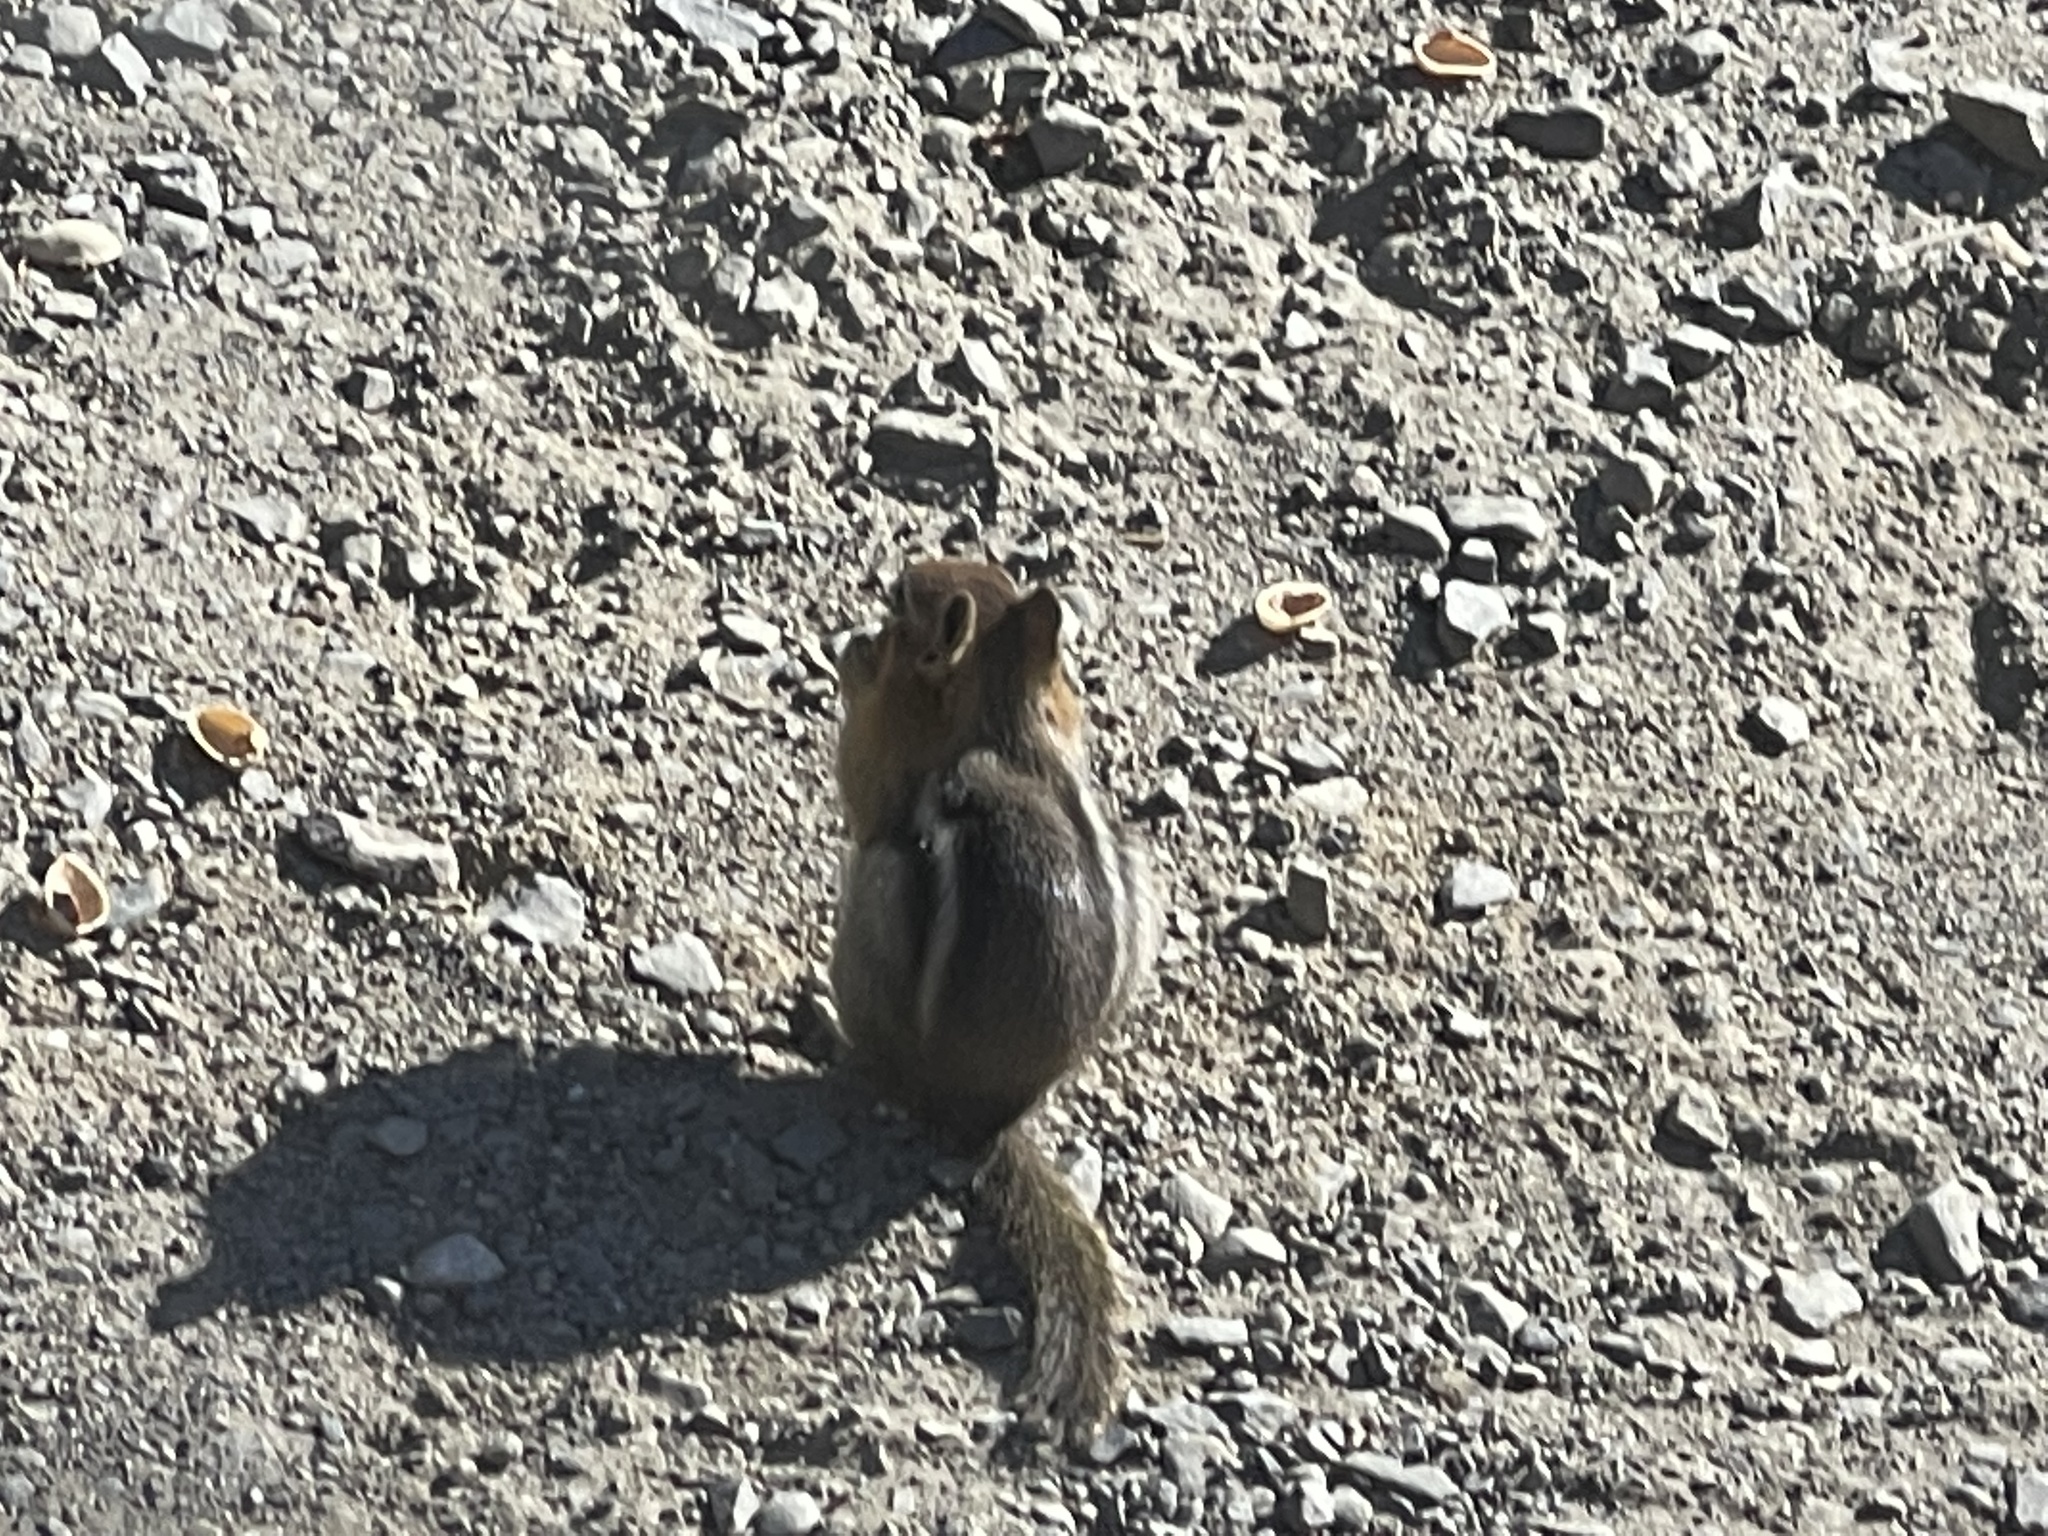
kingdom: Animalia
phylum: Chordata
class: Mammalia
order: Rodentia
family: Sciuridae
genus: Callospermophilus
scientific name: Callospermophilus lateralis
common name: Golden-mantled ground squirrel
